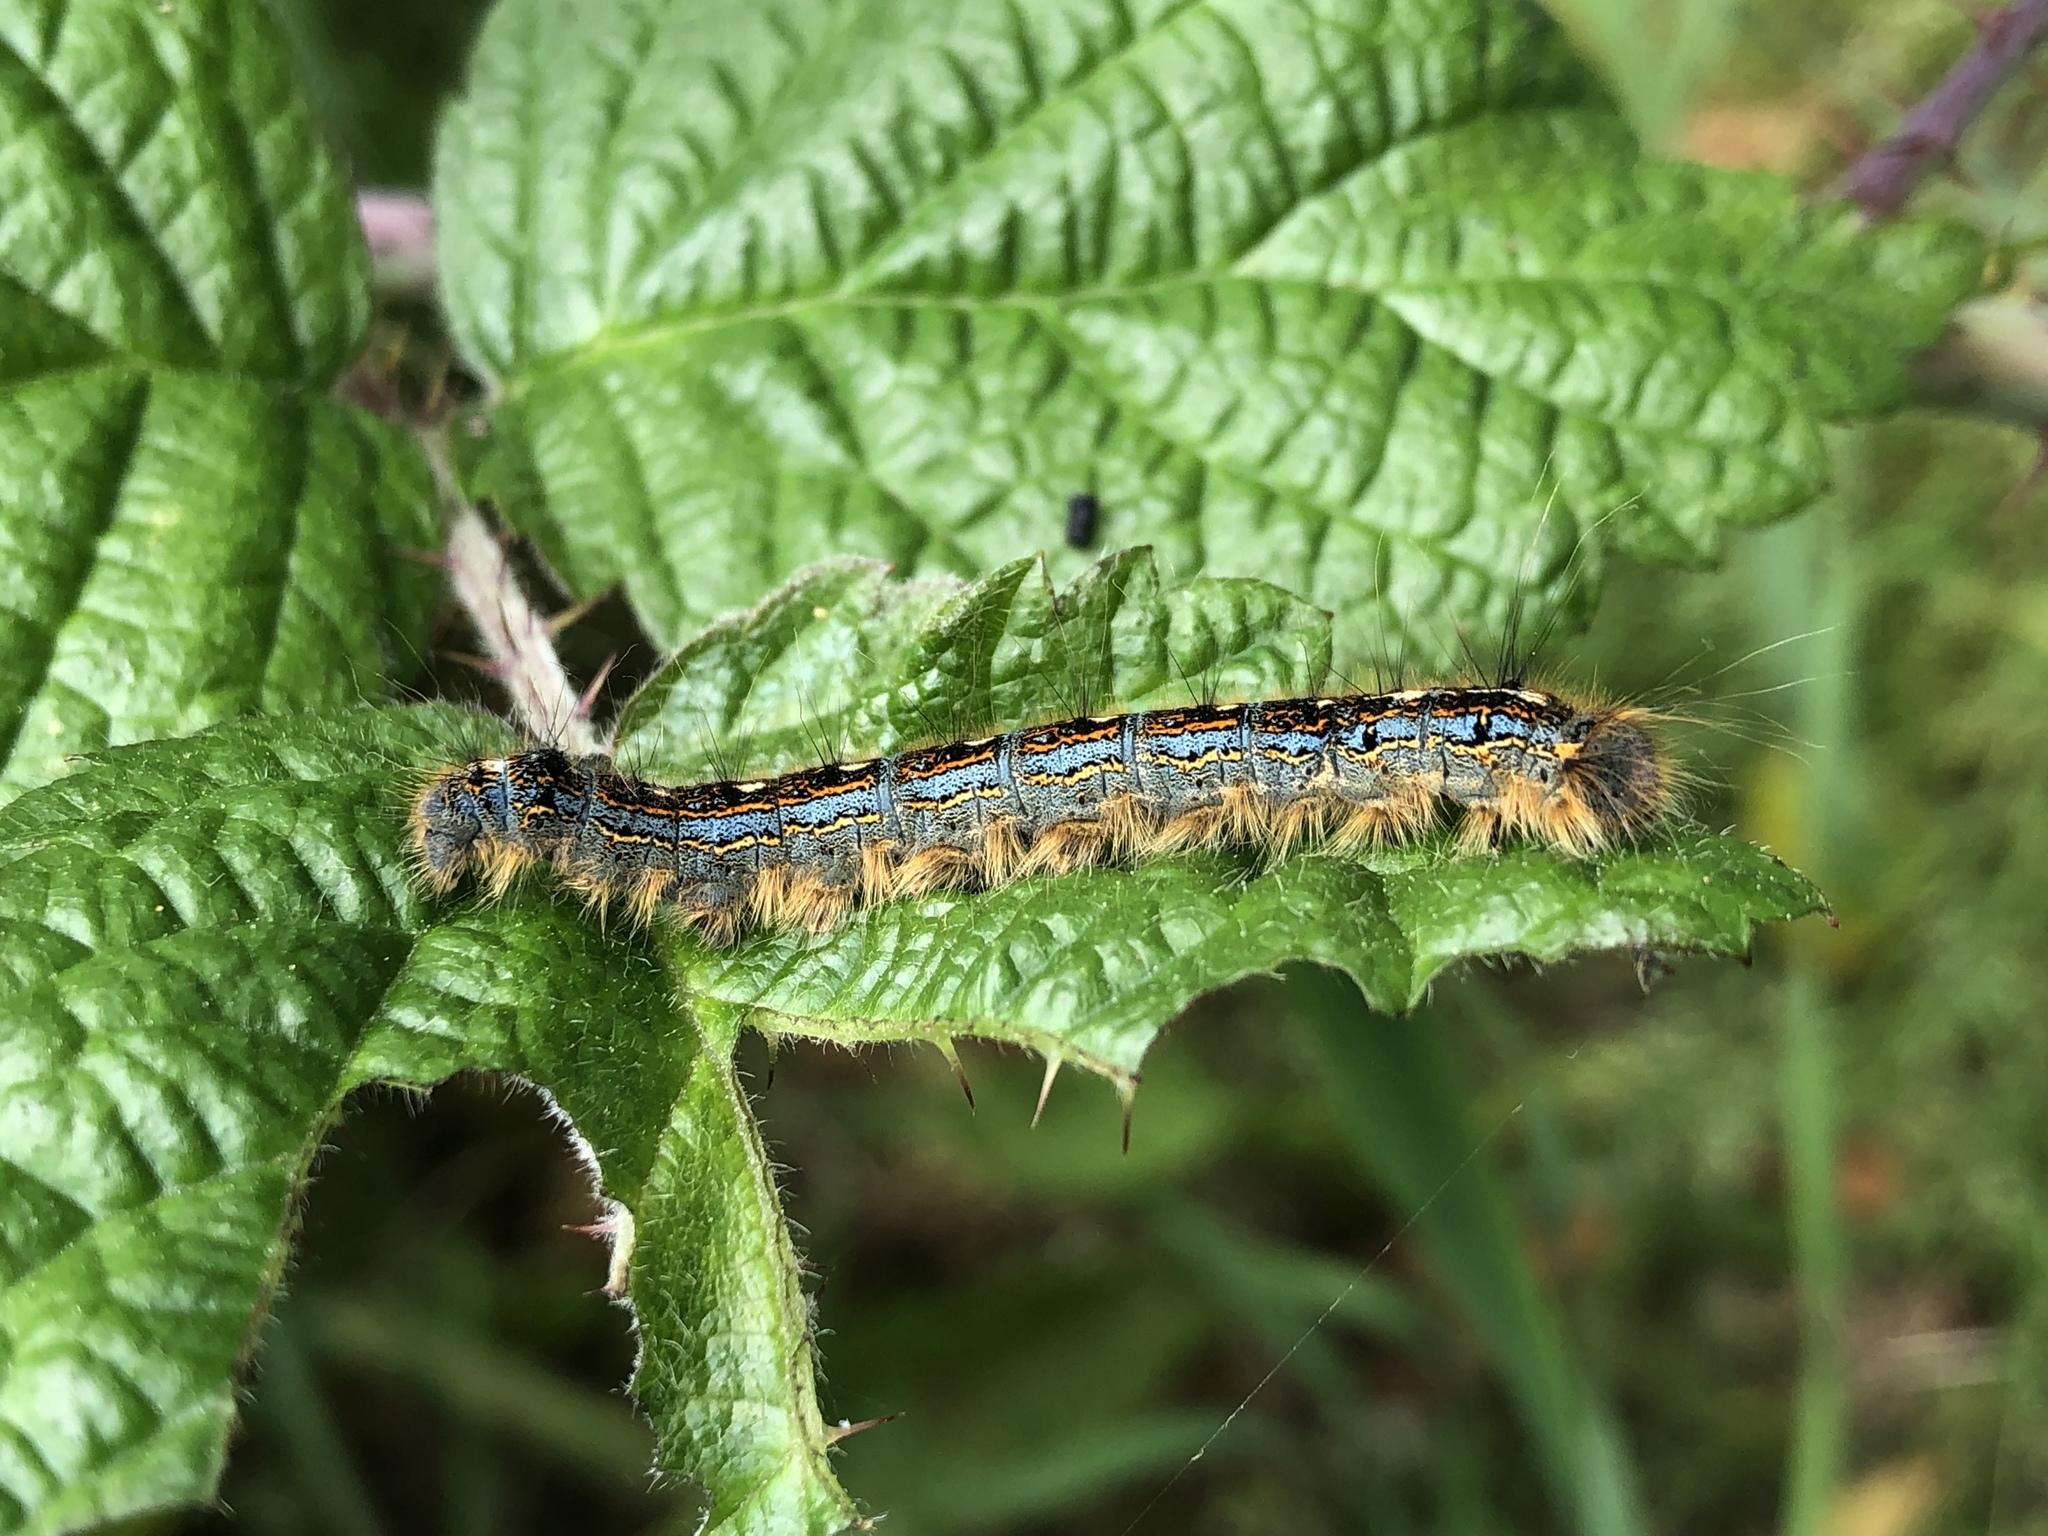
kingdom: Animalia
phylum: Arthropoda
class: Insecta
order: Lepidoptera
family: Lasiocampidae
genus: Malacosoma
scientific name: Malacosoma disstria
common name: Forest tent caterpillar
